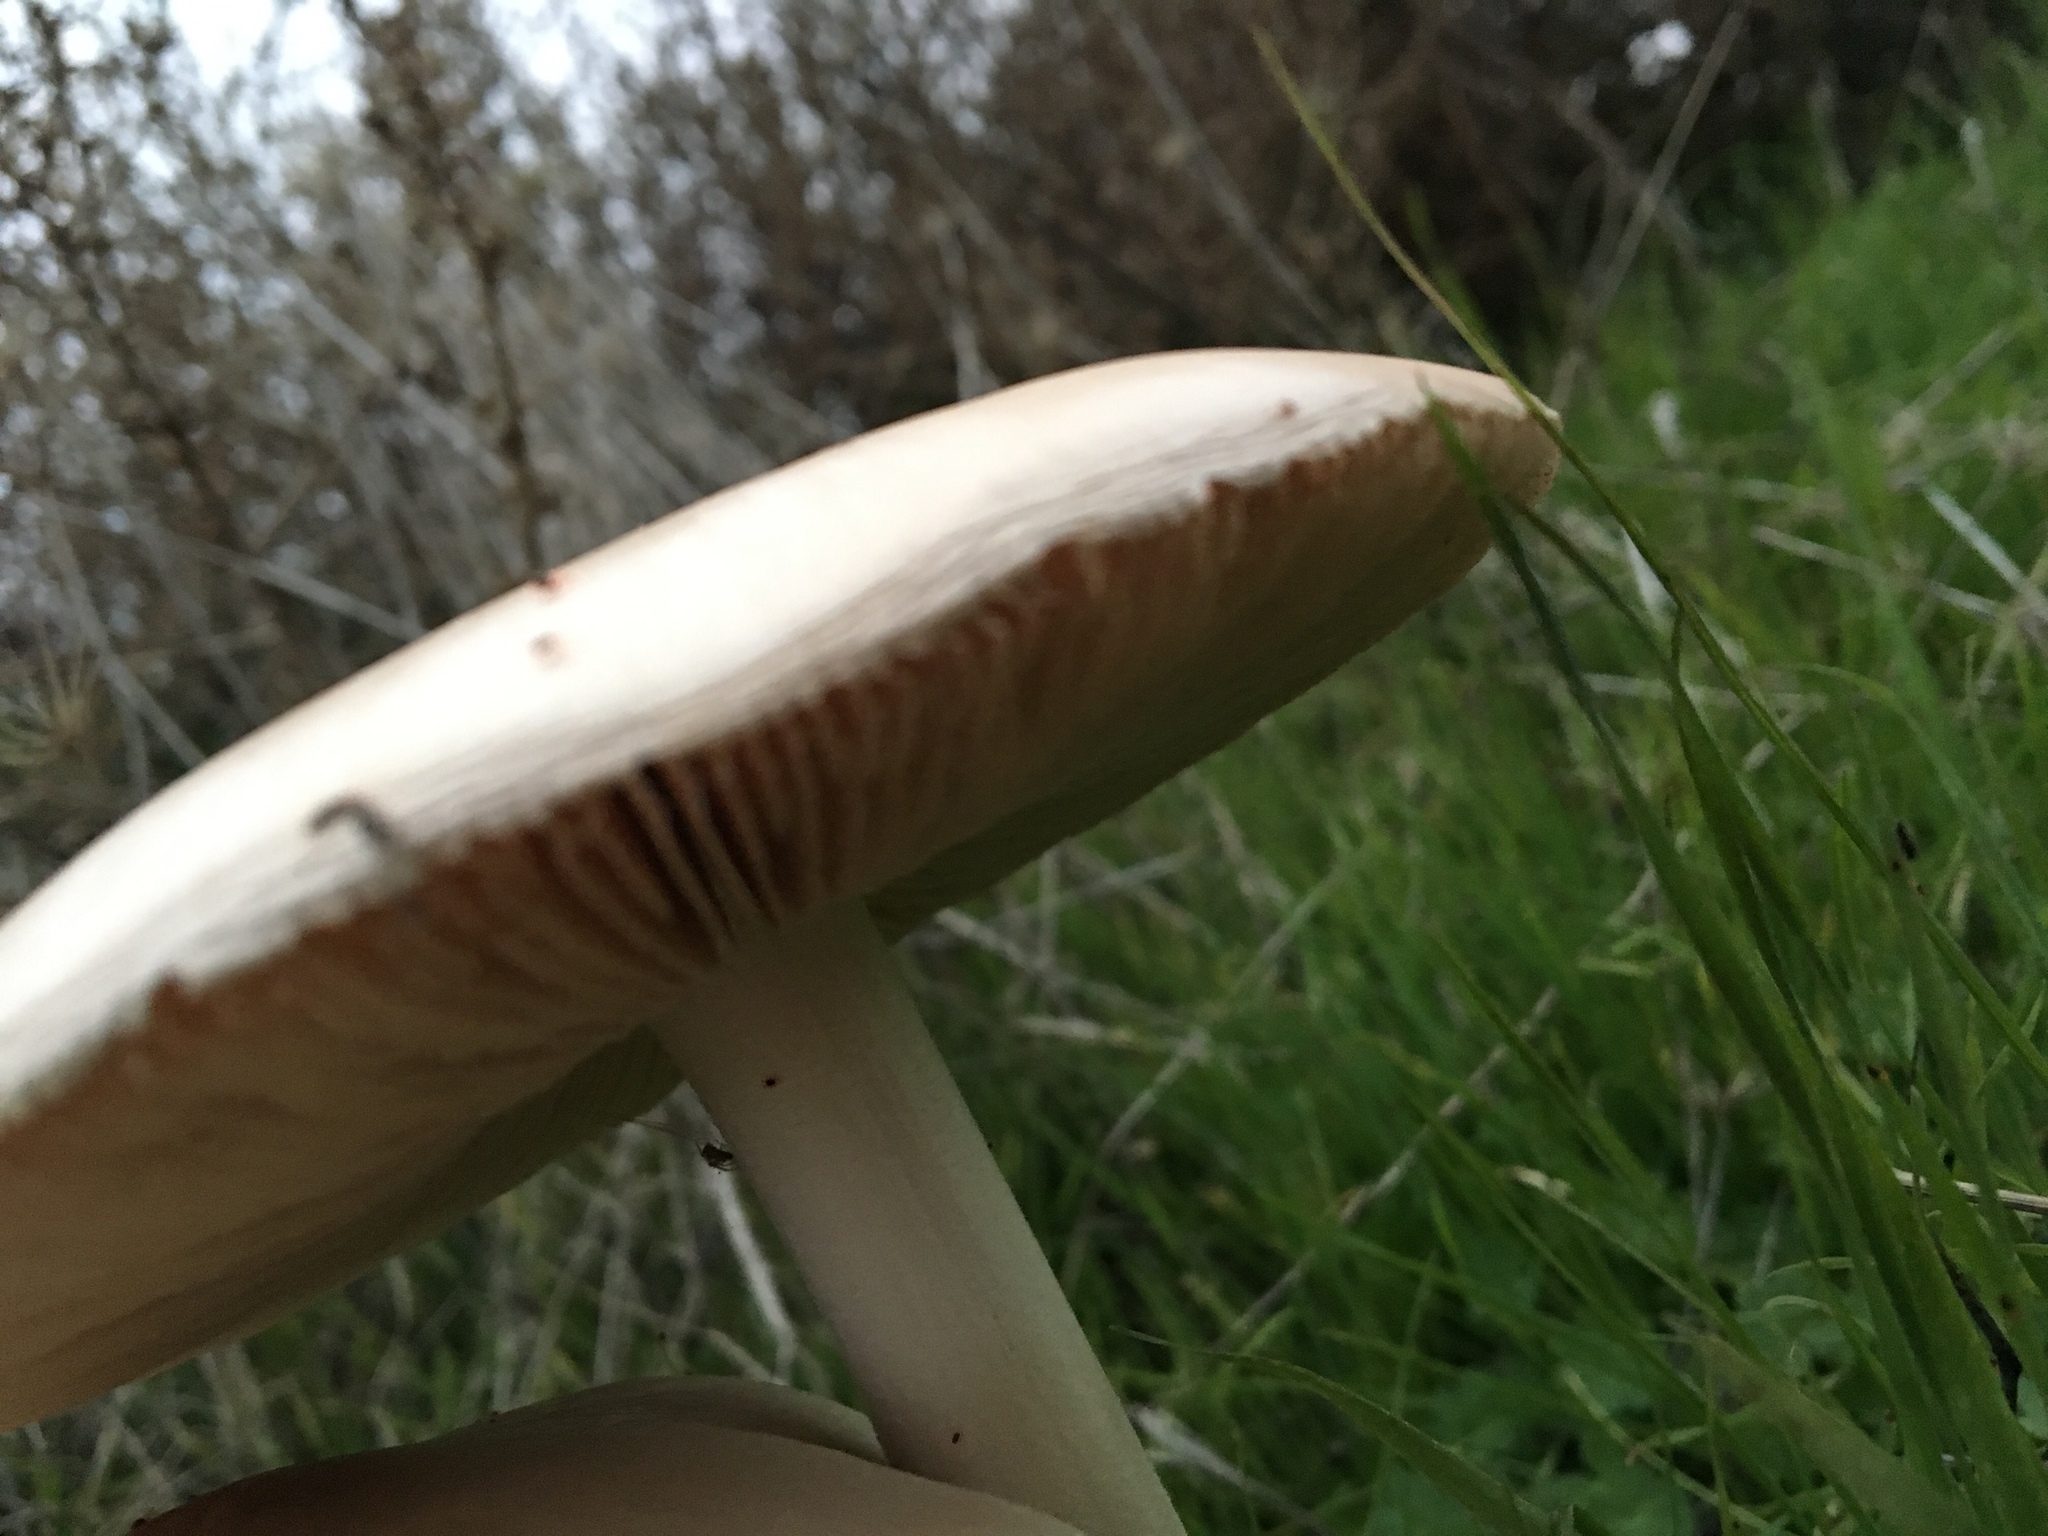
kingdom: Fungi
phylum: Basidiomycota
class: Agaricomycetes
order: Agaricales
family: Pluteaceae
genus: Volvopluteus
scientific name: Volvopluteus gloiocephalus
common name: Stubble rosegill
